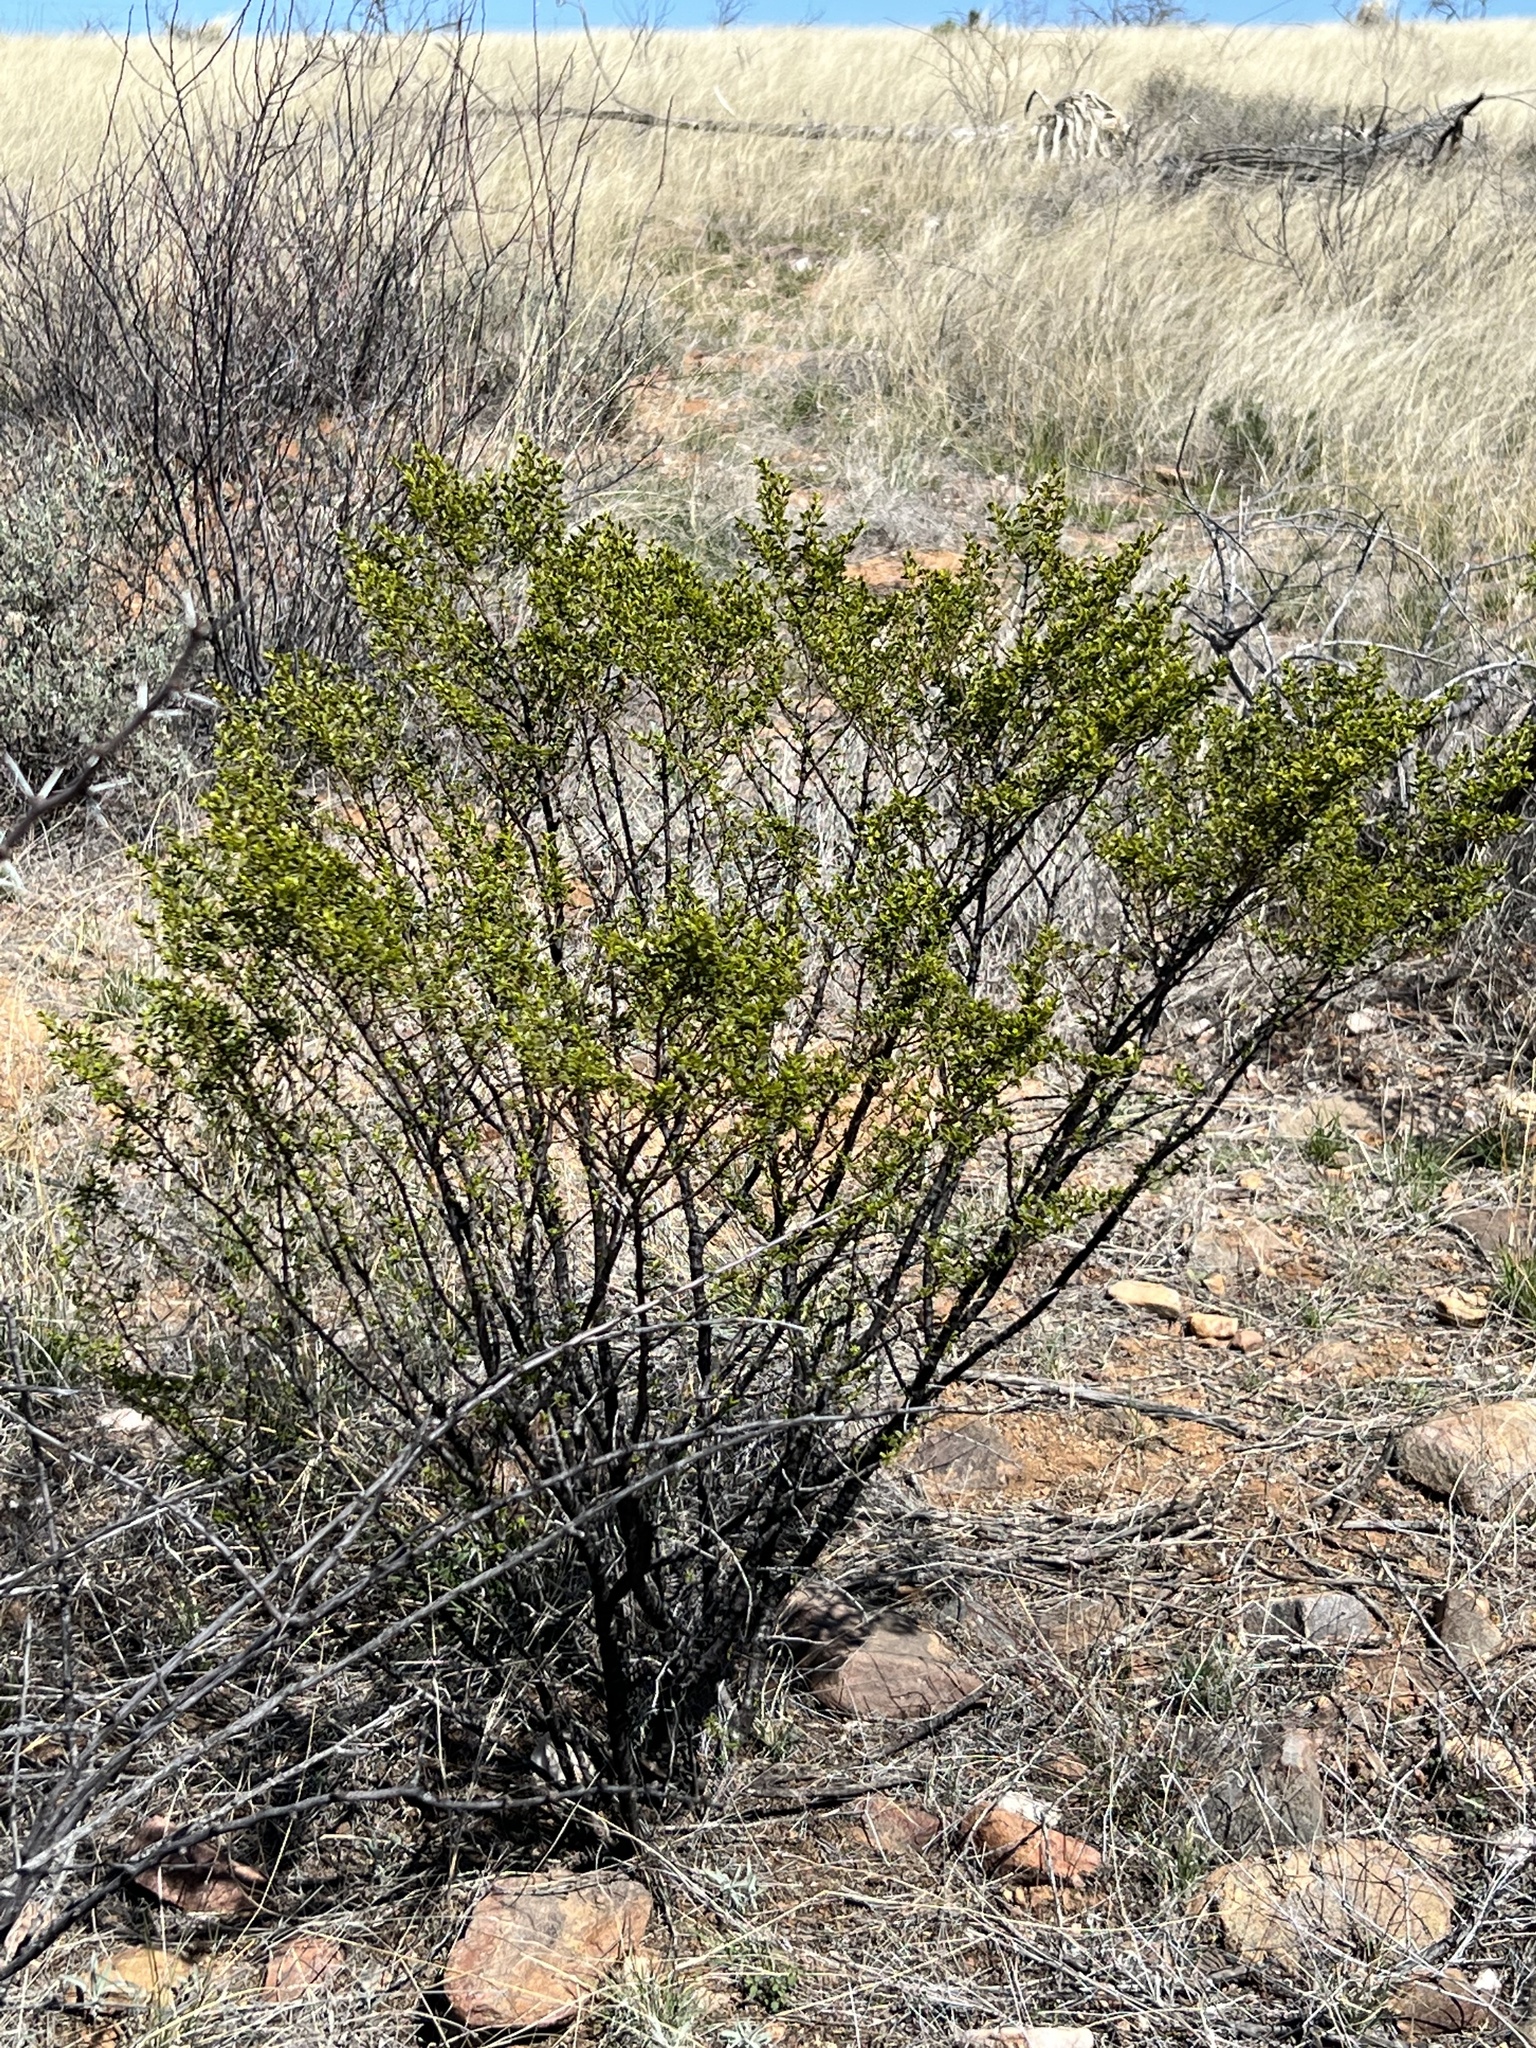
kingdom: Plantae
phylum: Tracheophyta
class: Magnoliopsida
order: Zygophyllales
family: Zygophyllaceae
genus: Larrea
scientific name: Larrea tridentata
